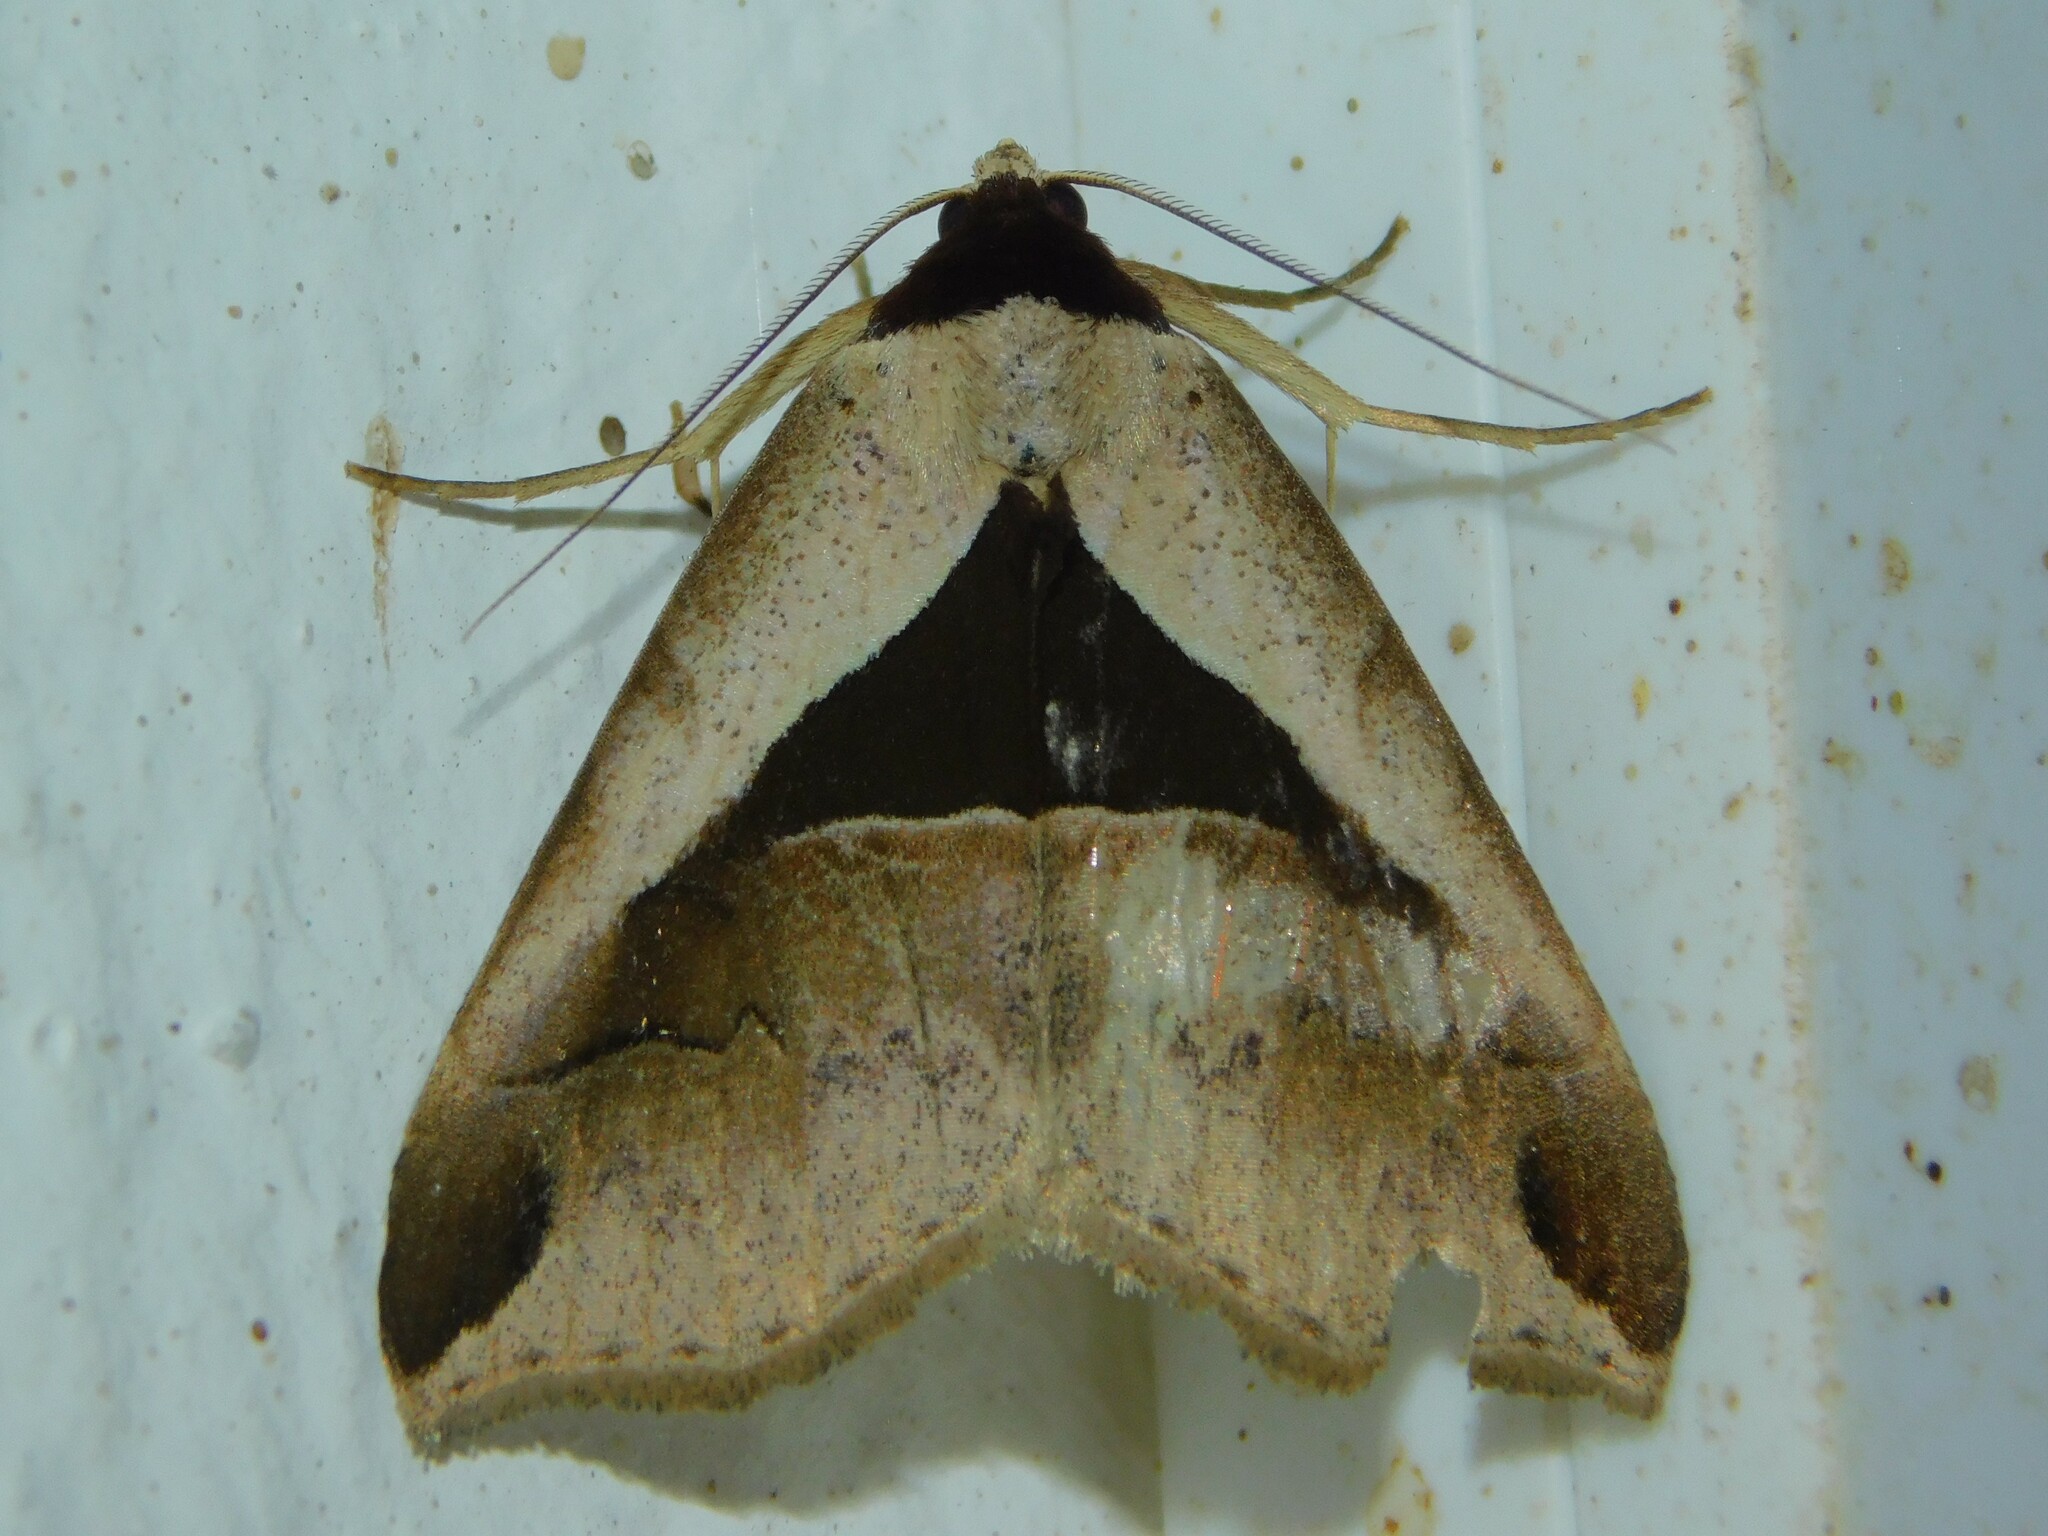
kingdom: Animalia
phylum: Arthropoda
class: Insecta
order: Lepidoptera
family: Erebidae
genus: Anoba
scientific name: Anoba biangulata
